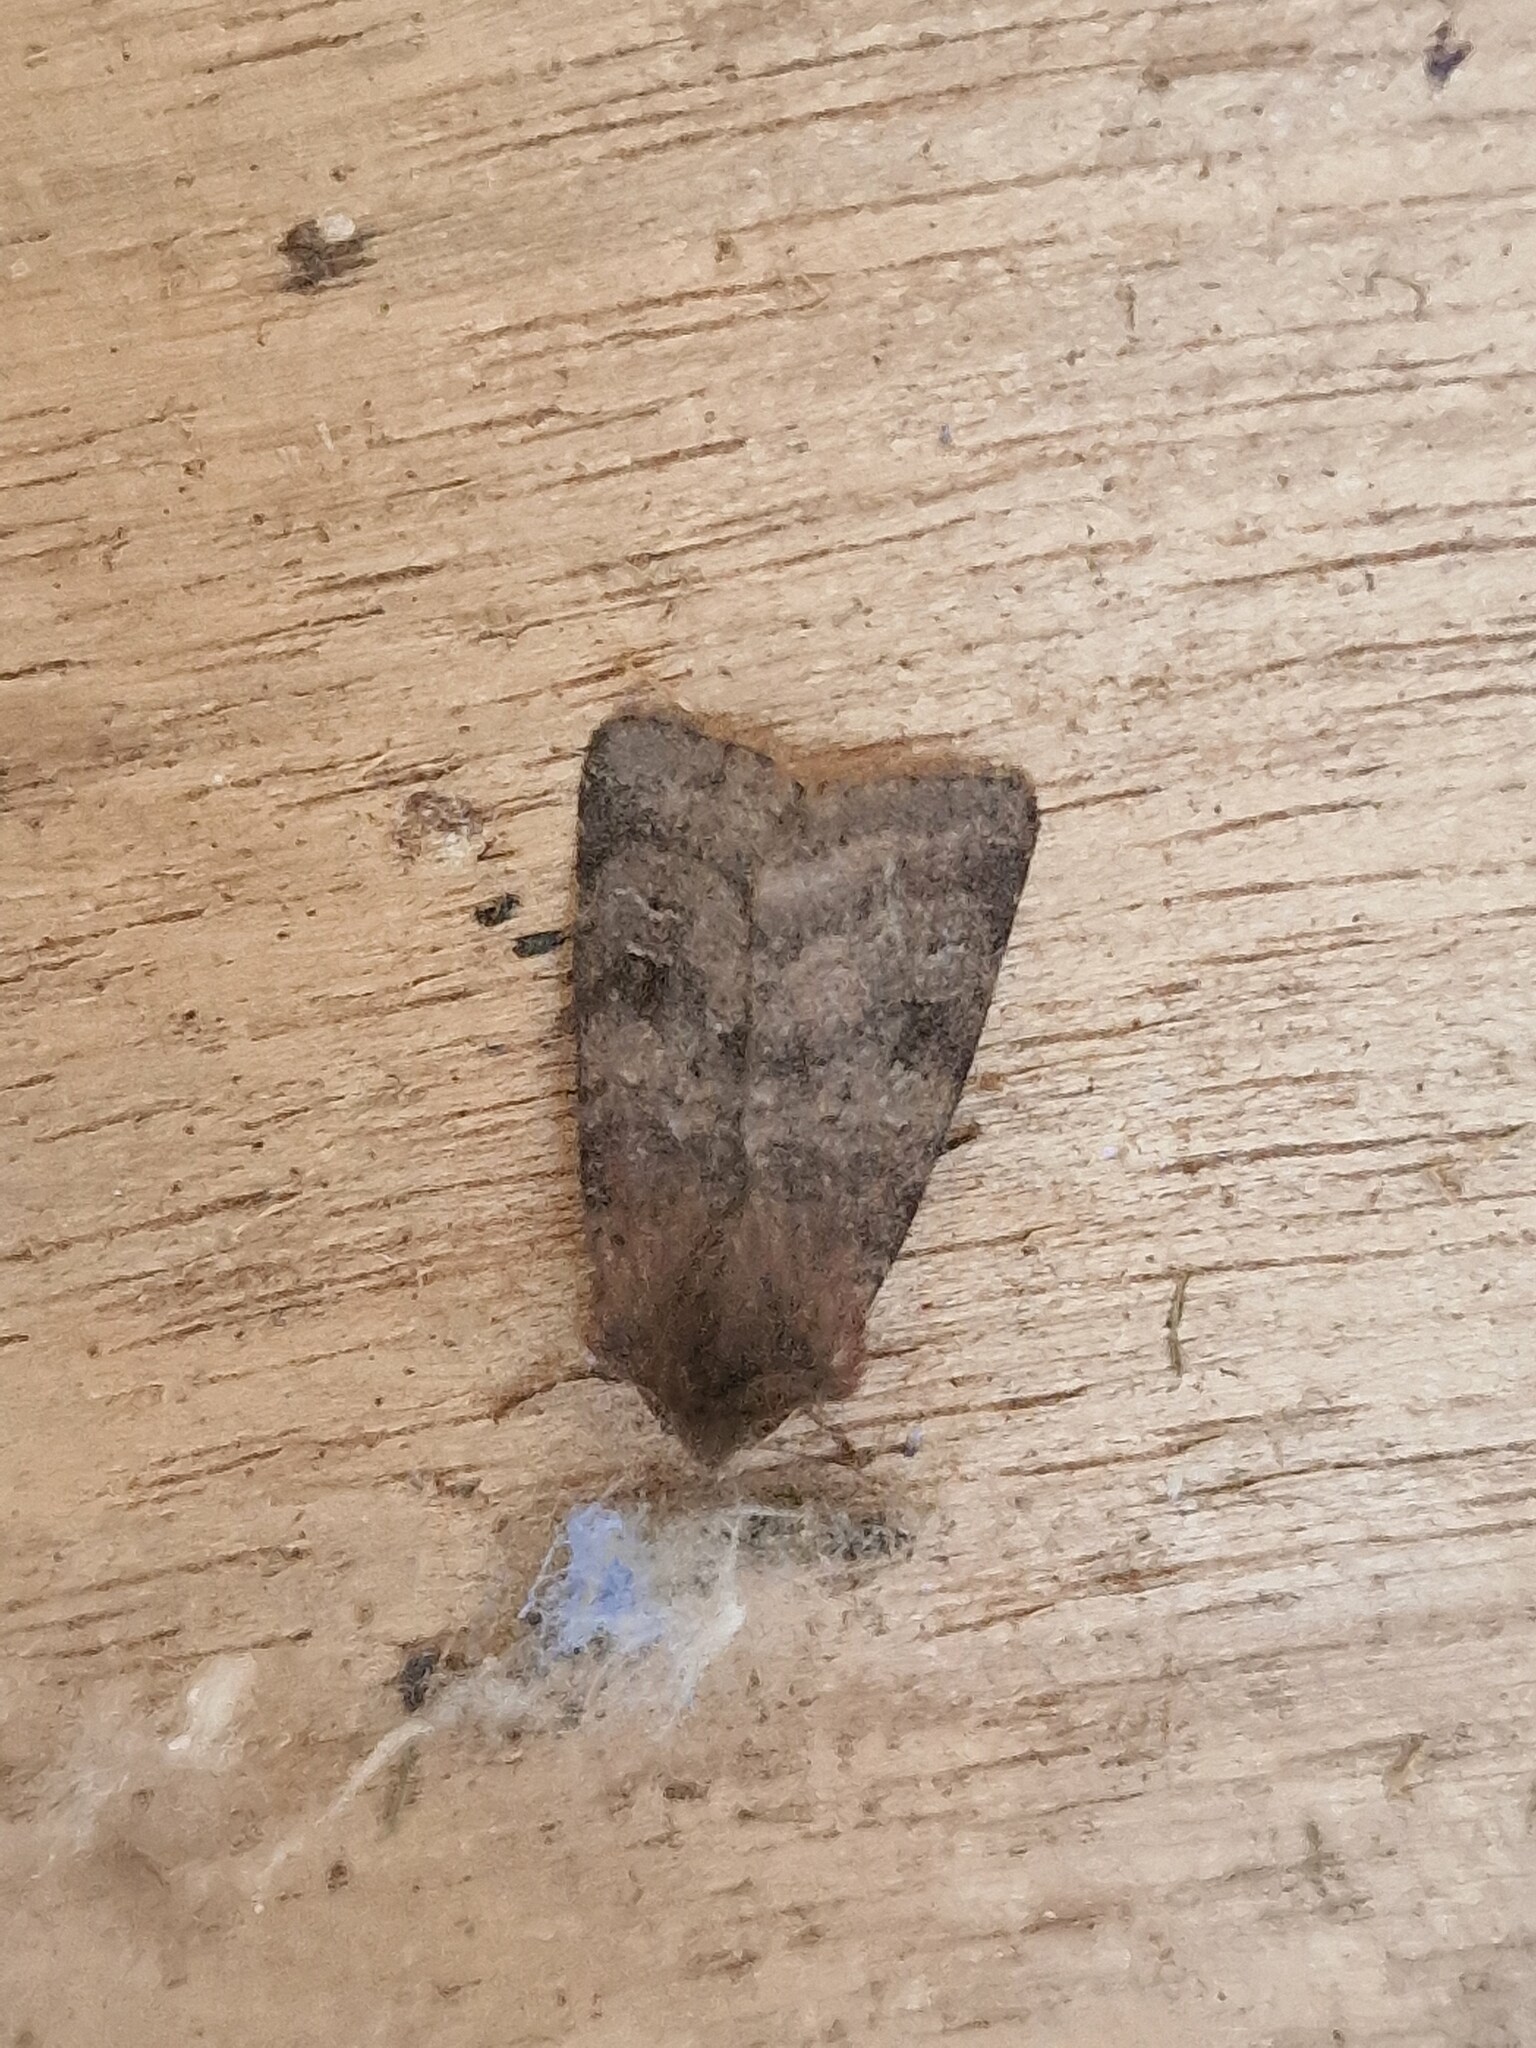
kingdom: Animalia
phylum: Arthropoda
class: Insecta
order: Lepidoptera
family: Noctuidae
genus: Diarsia
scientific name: Diarsia rubi
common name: Small square-spot
